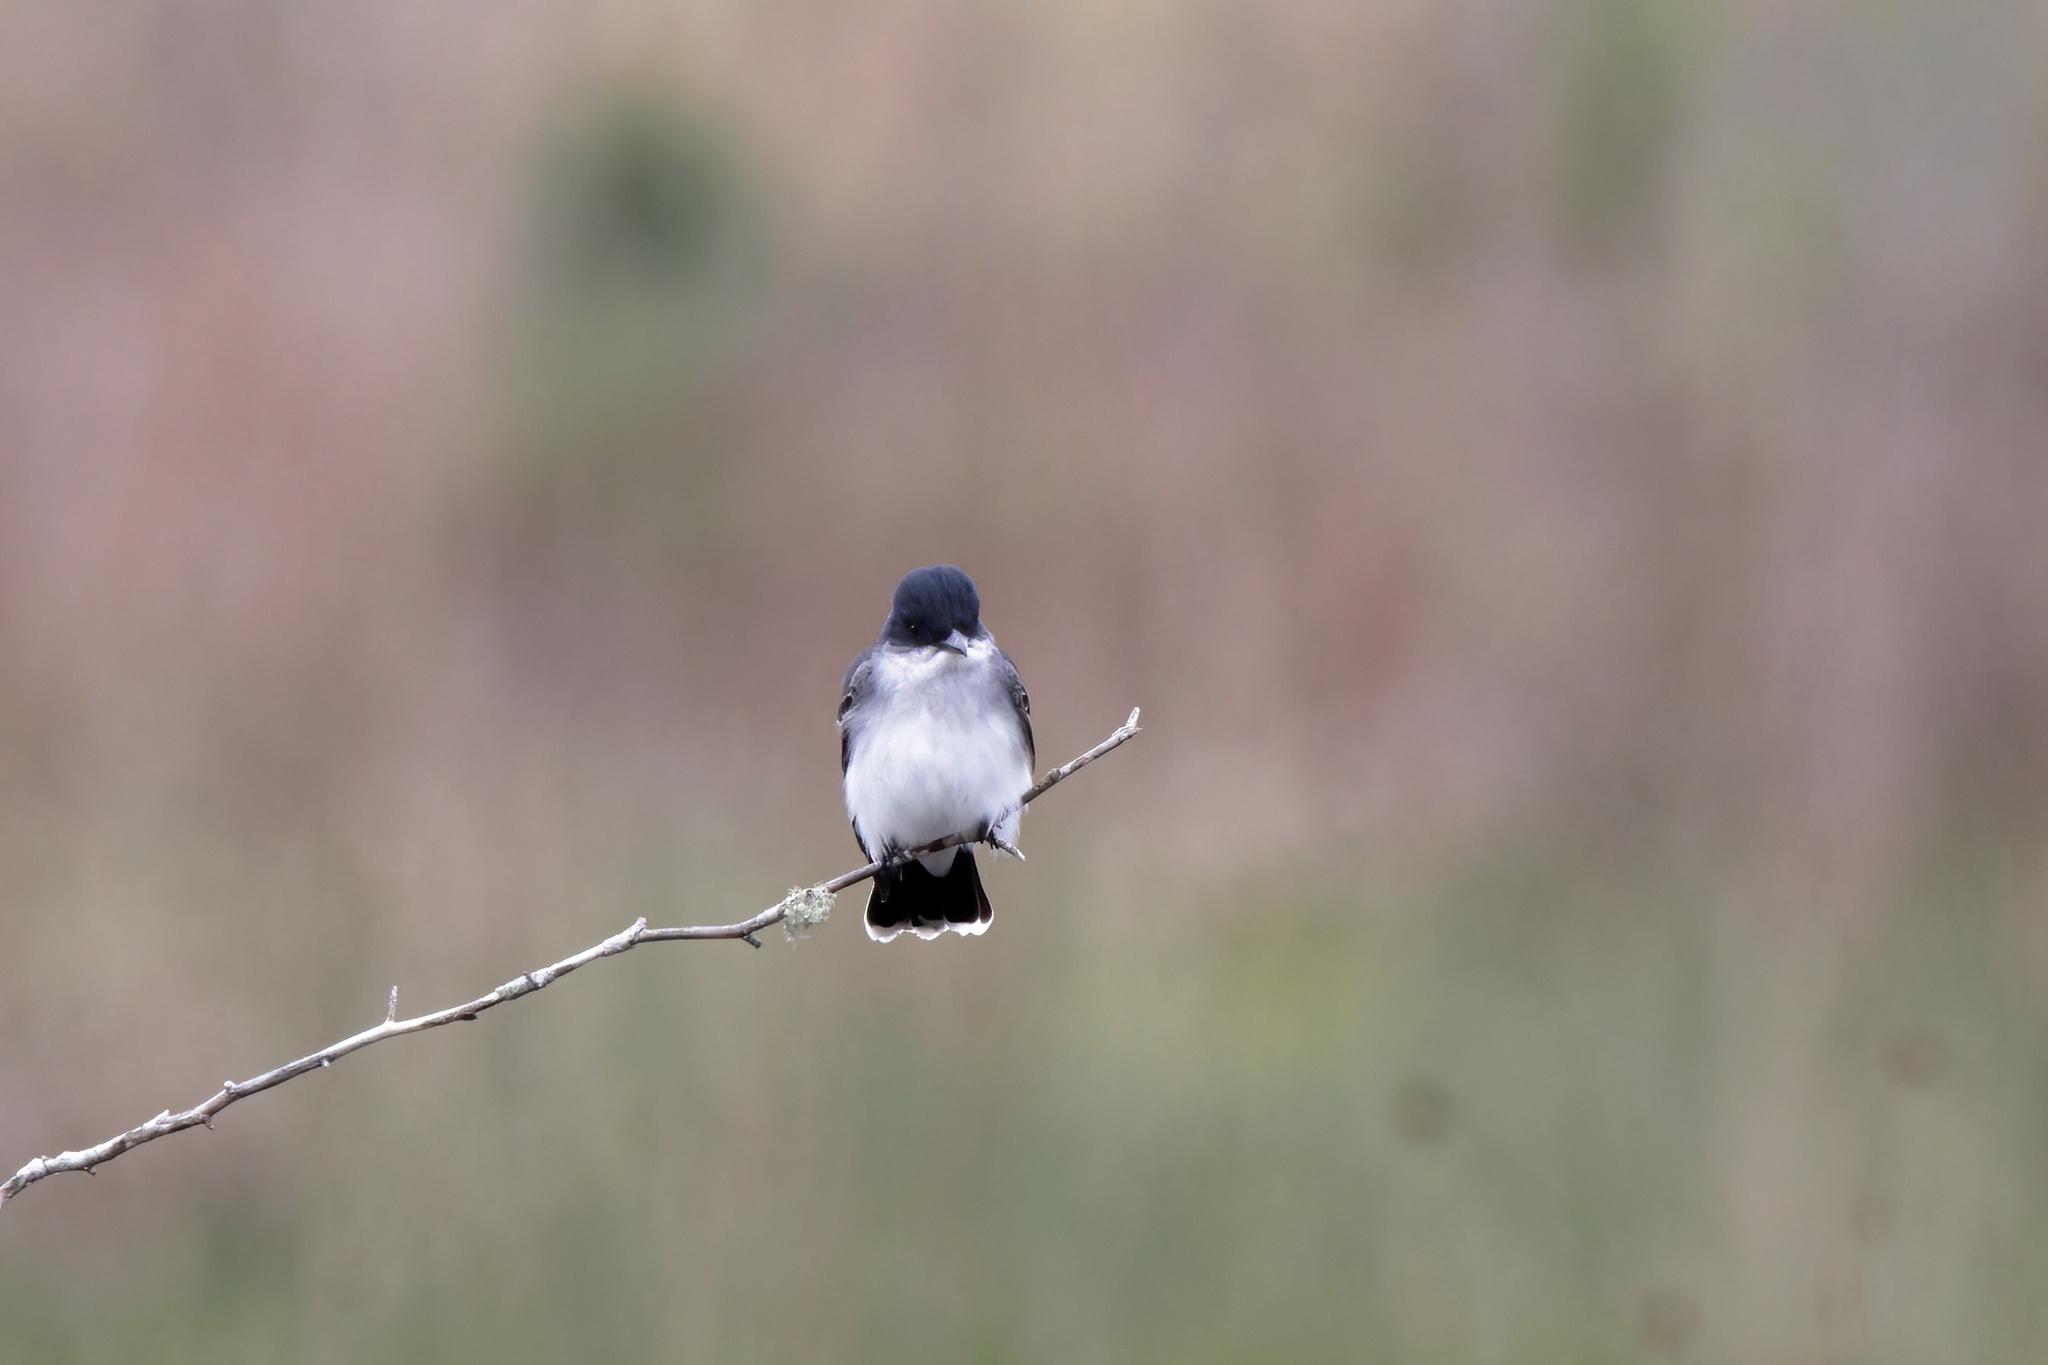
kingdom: Animalia
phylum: Chordata
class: Aves
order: Passeriformes
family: Tyrannidae
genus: Tyrannus
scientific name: Tyrannus tyrannus
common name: Eastern kingbird
